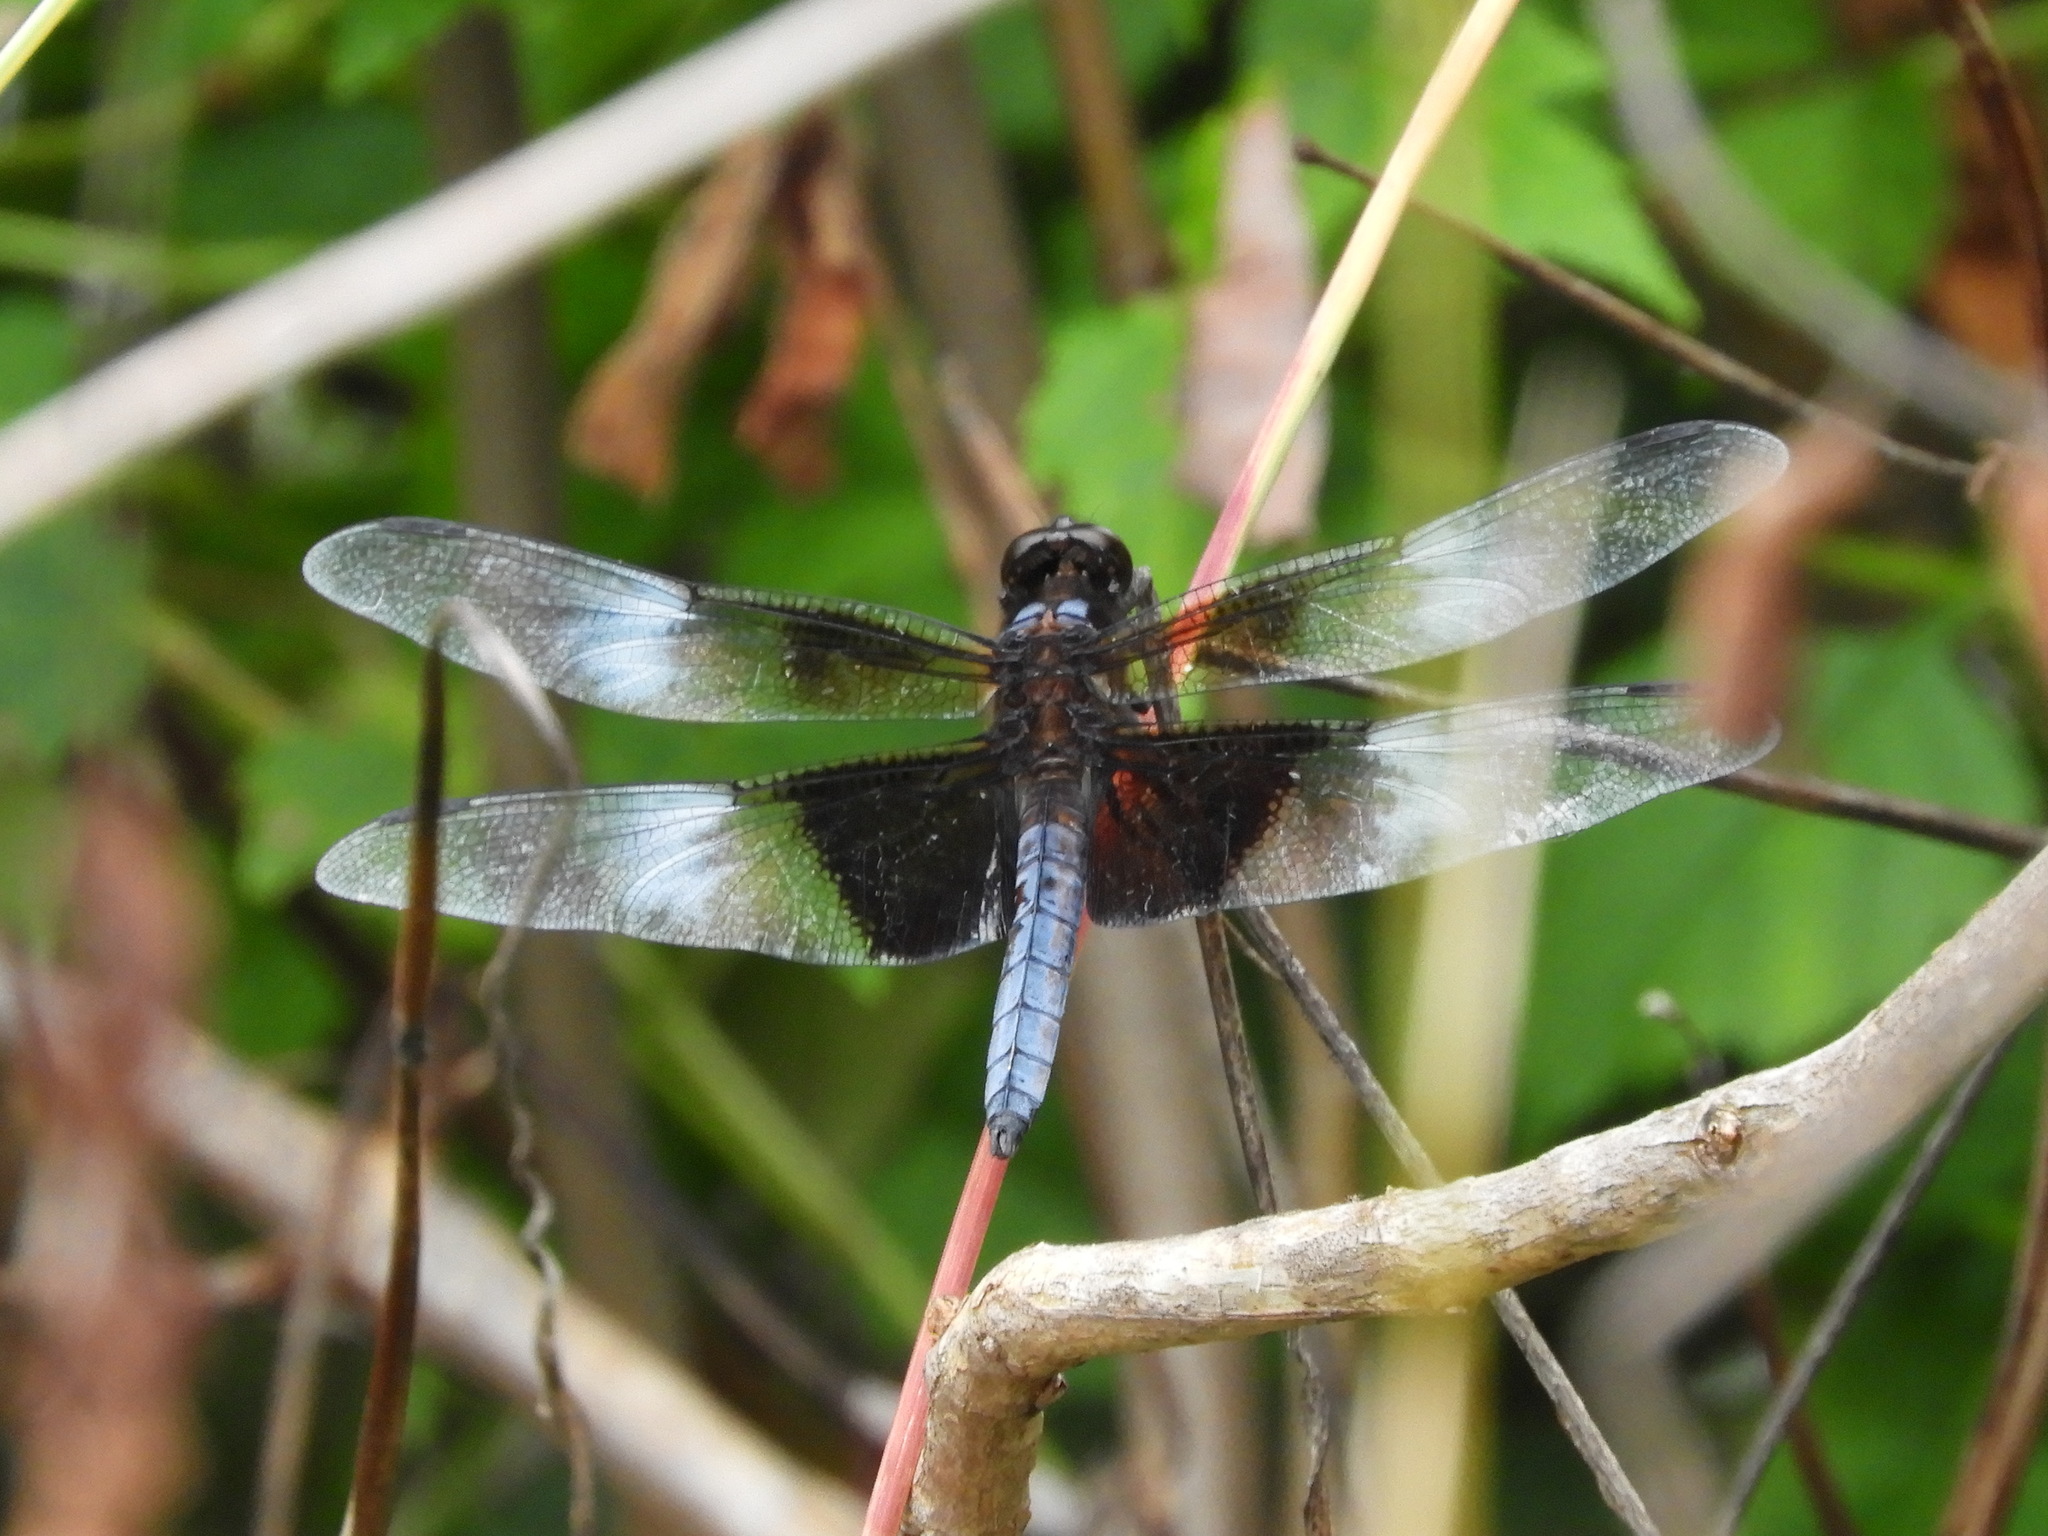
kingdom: Animalia
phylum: Arthropoda
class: Insecta
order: Odonata
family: Libellulidae
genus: Libellula
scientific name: Libellula luctuosa
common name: Widow skimmer
